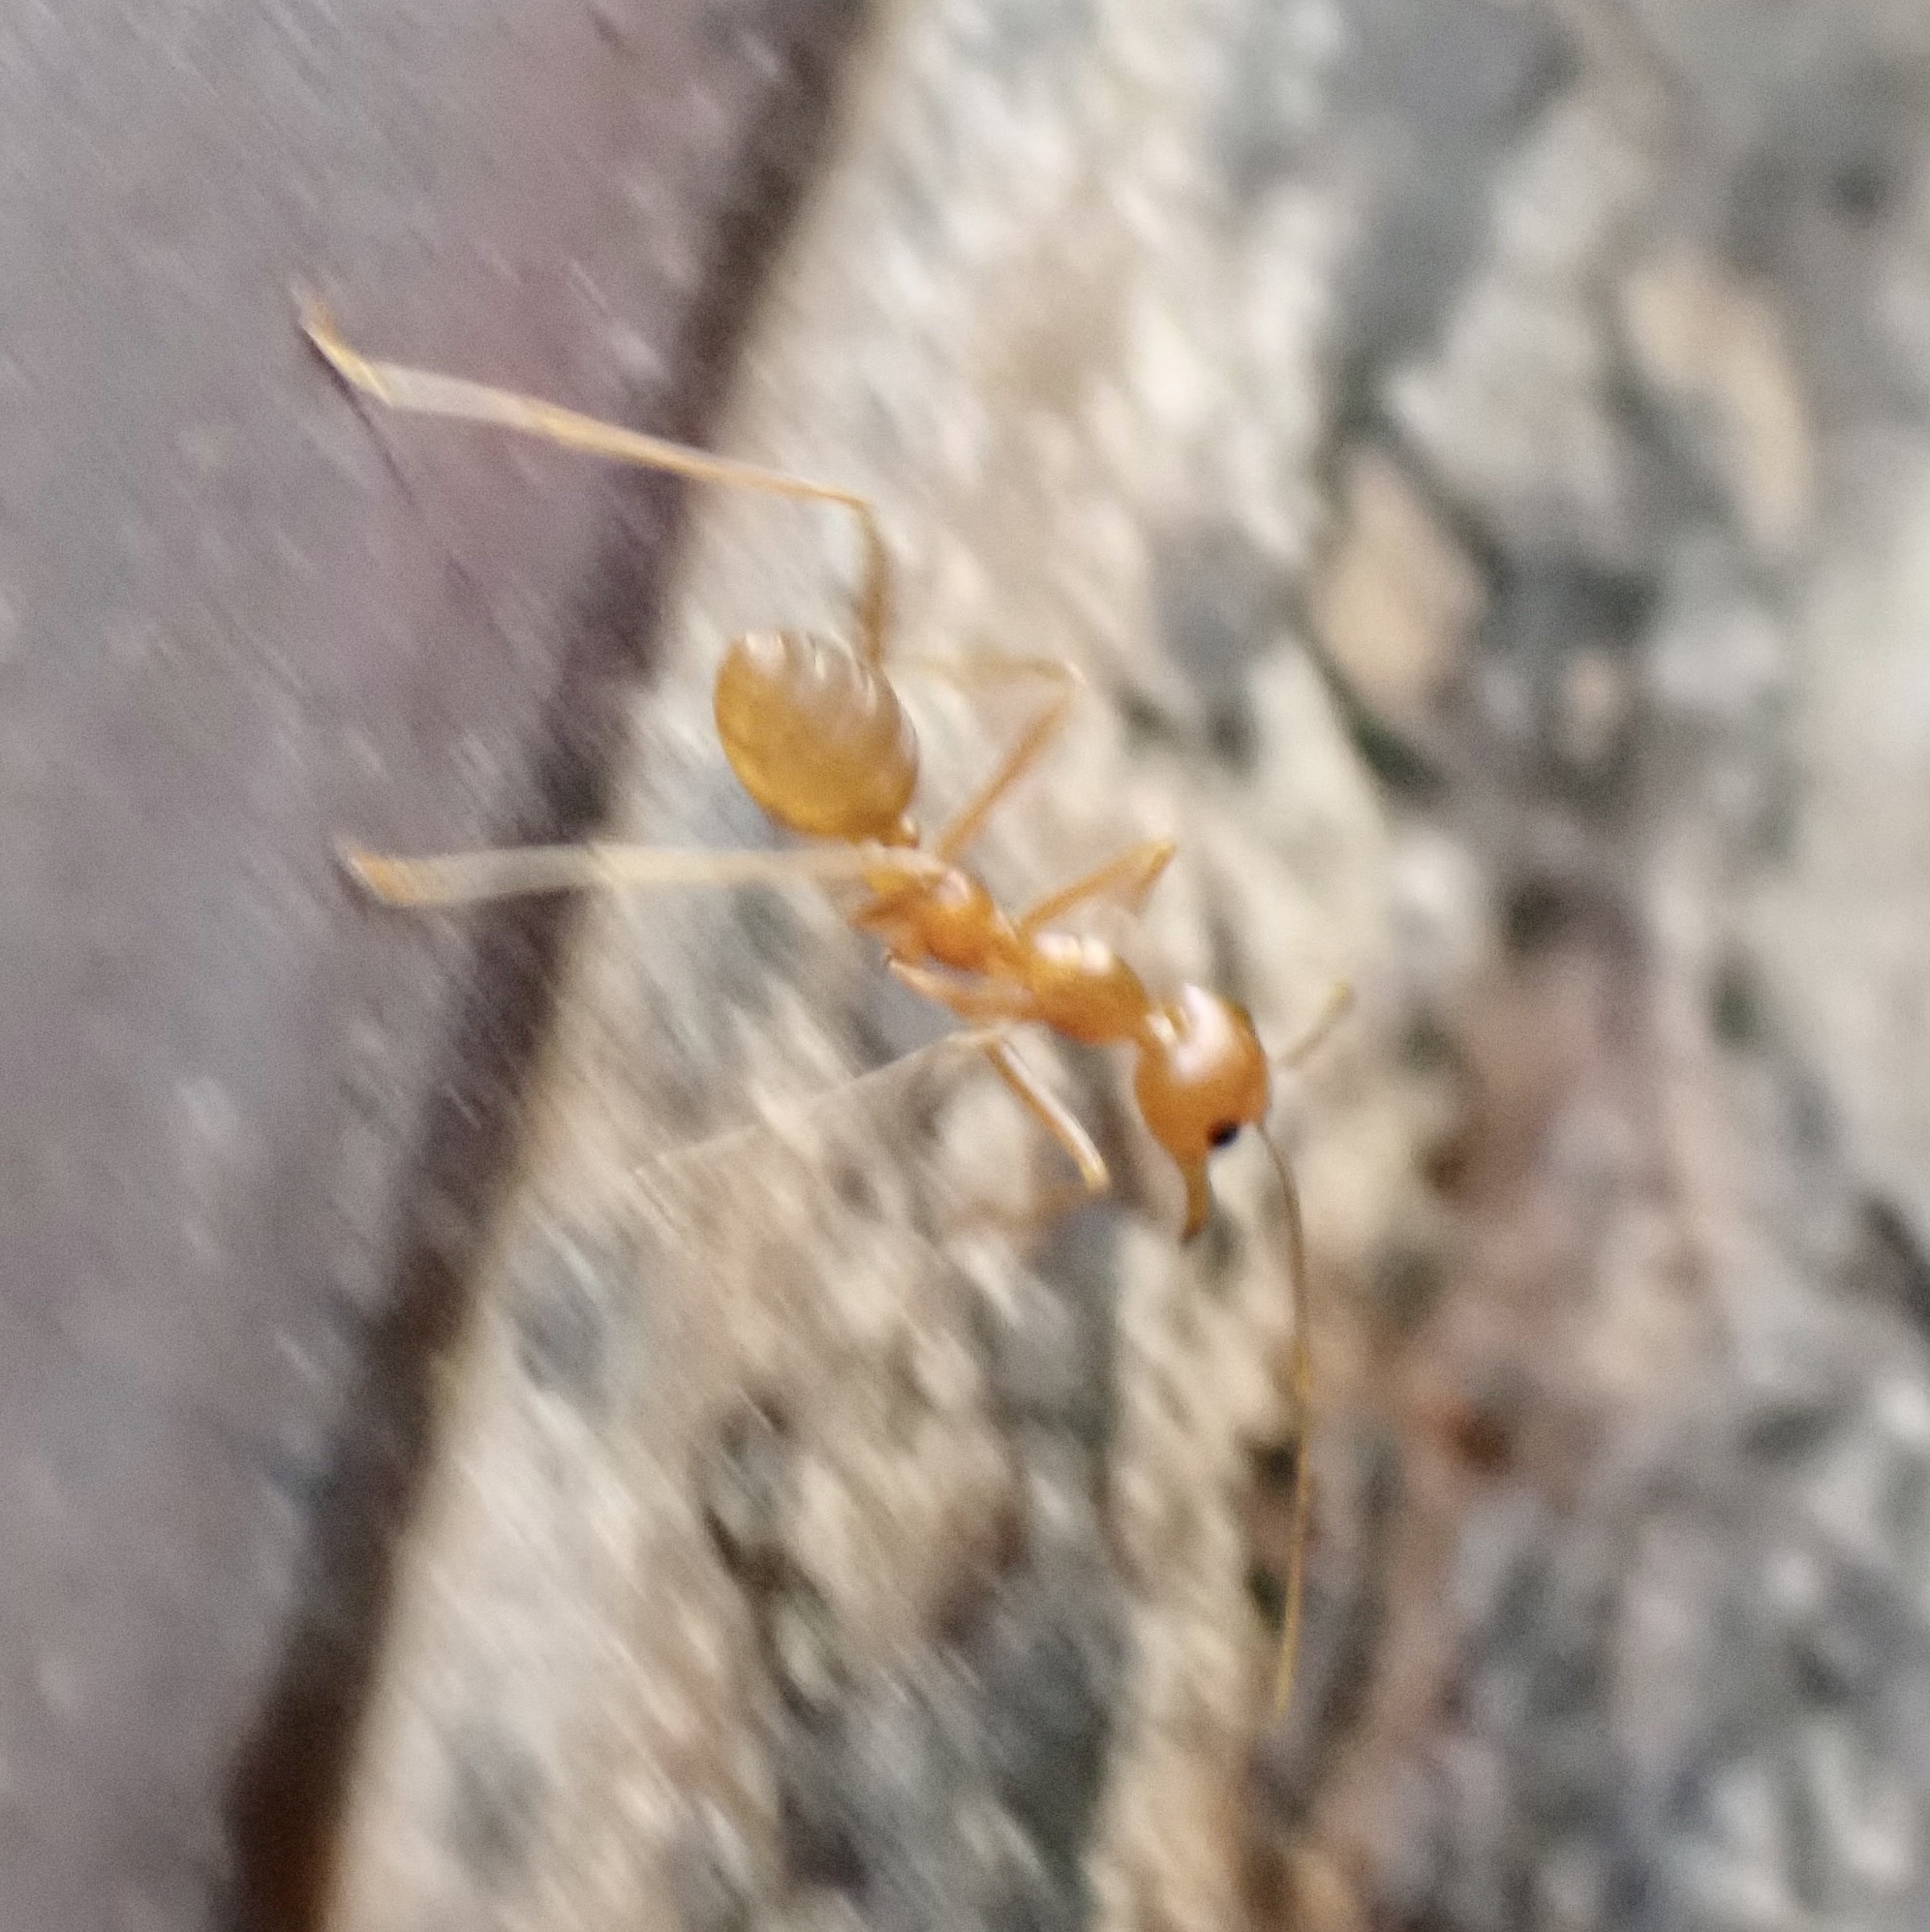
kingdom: Animalia
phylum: Arthropoda
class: Insecta
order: Hymenoptera
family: Formicidae
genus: Oecophylla
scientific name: Oecophylla smaragdina
